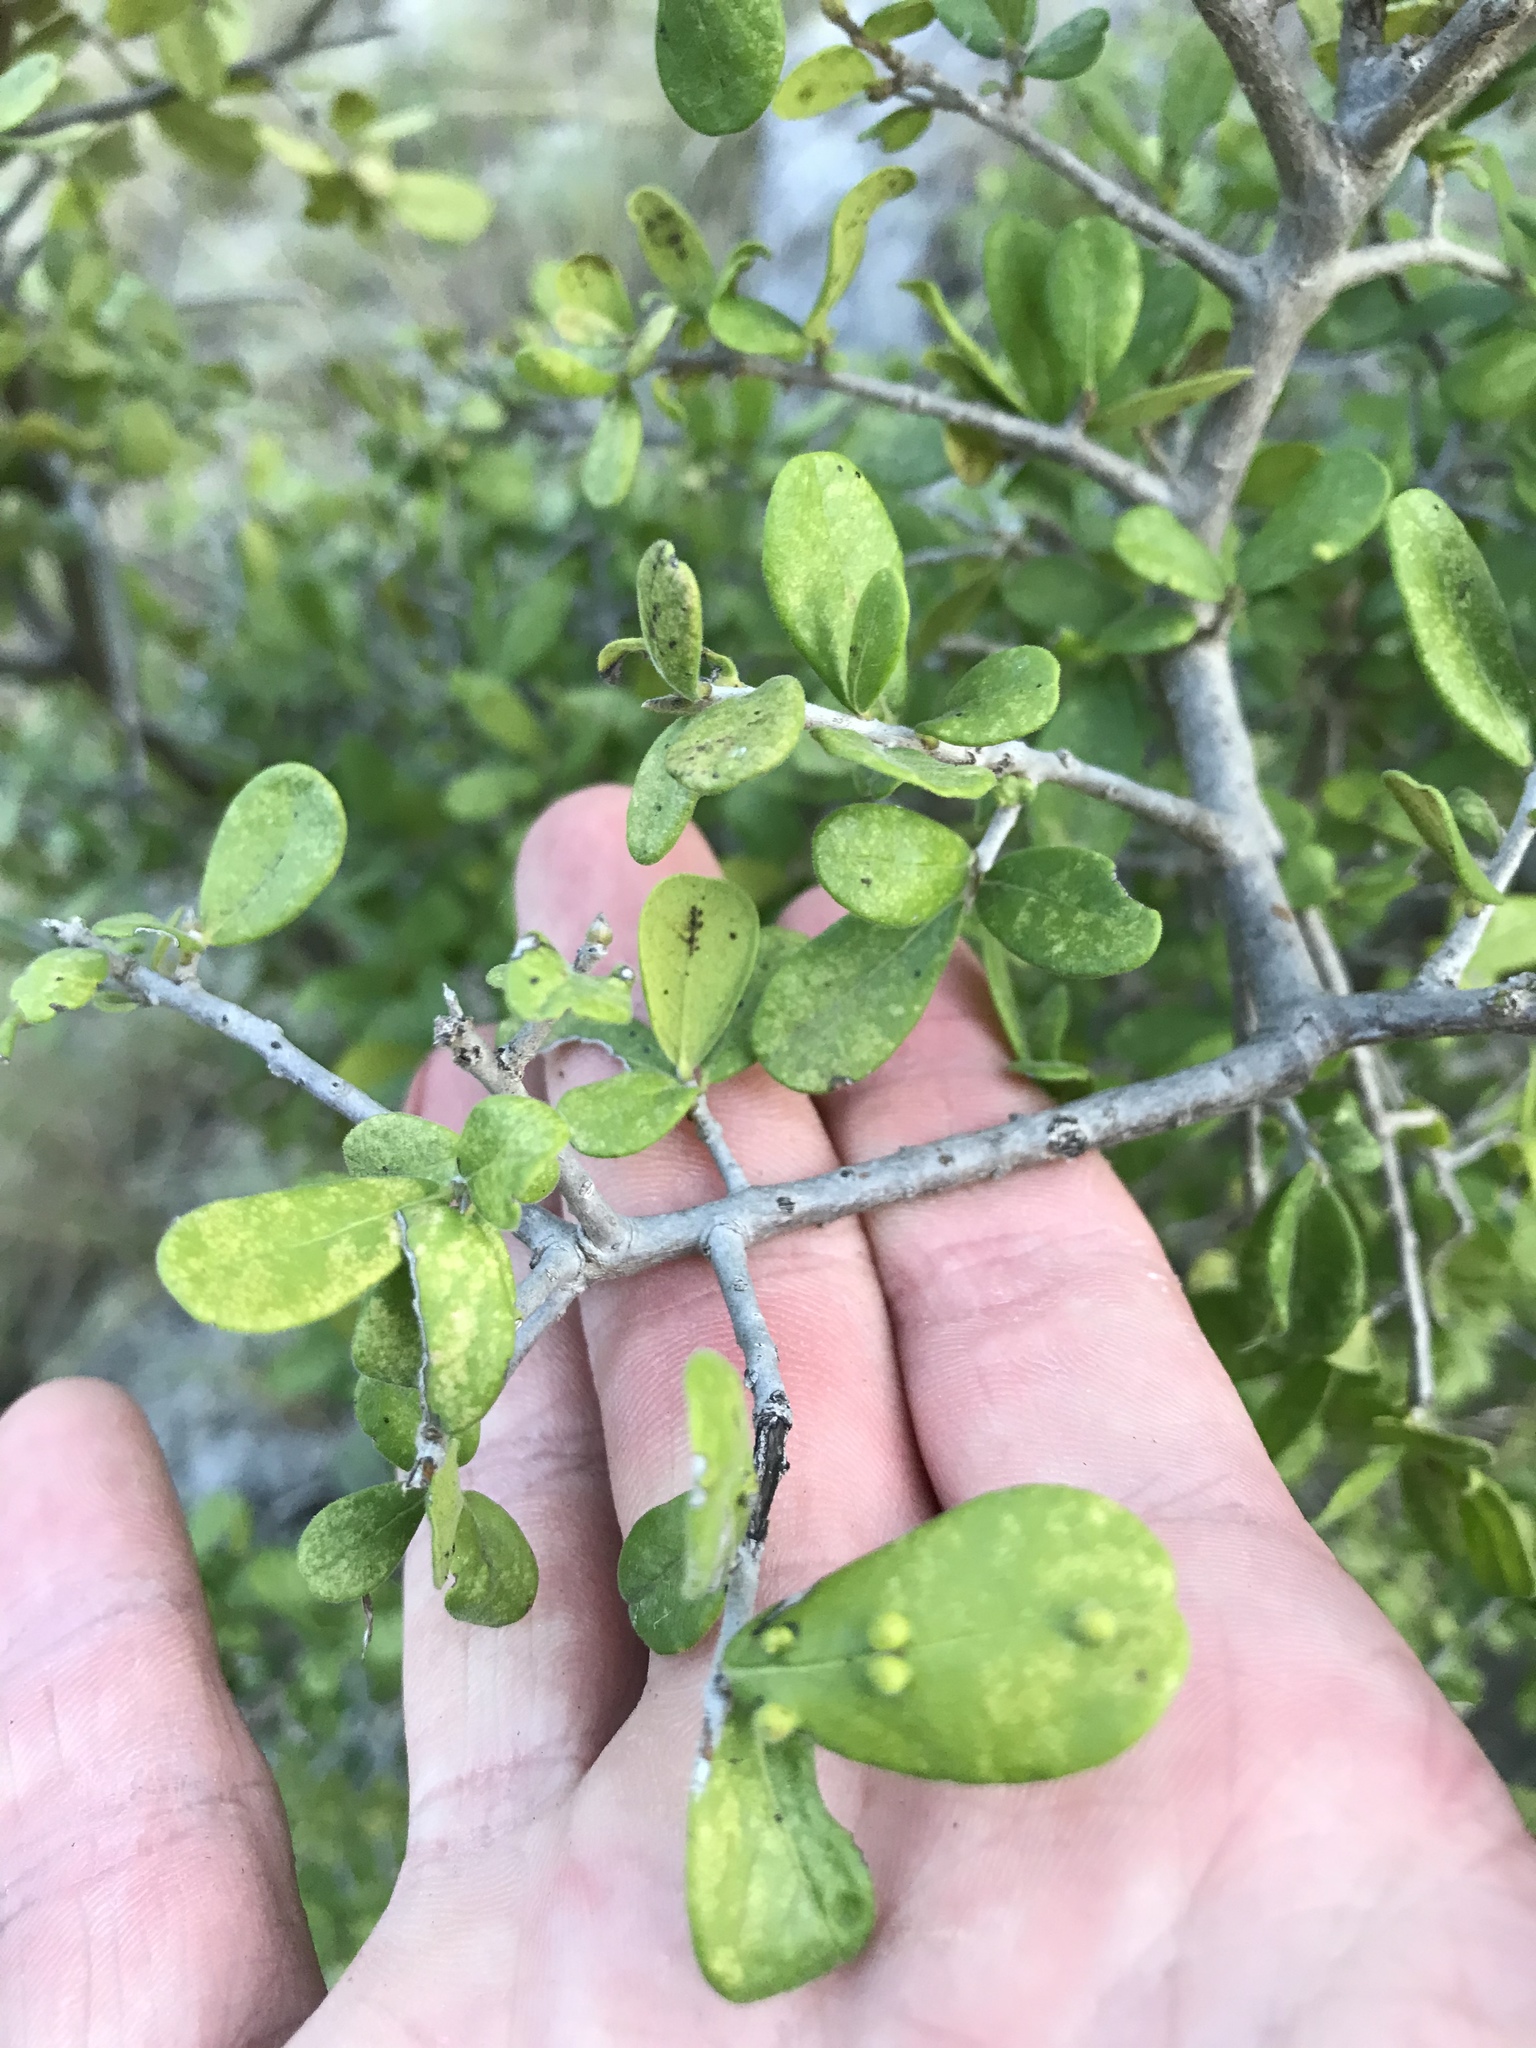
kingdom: Plantae
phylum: Tracheophyta
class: Magnoliopsida
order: Ericales
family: Ebenaceae
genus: Diospyros
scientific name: Diospyros texana
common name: Texas persimmon
